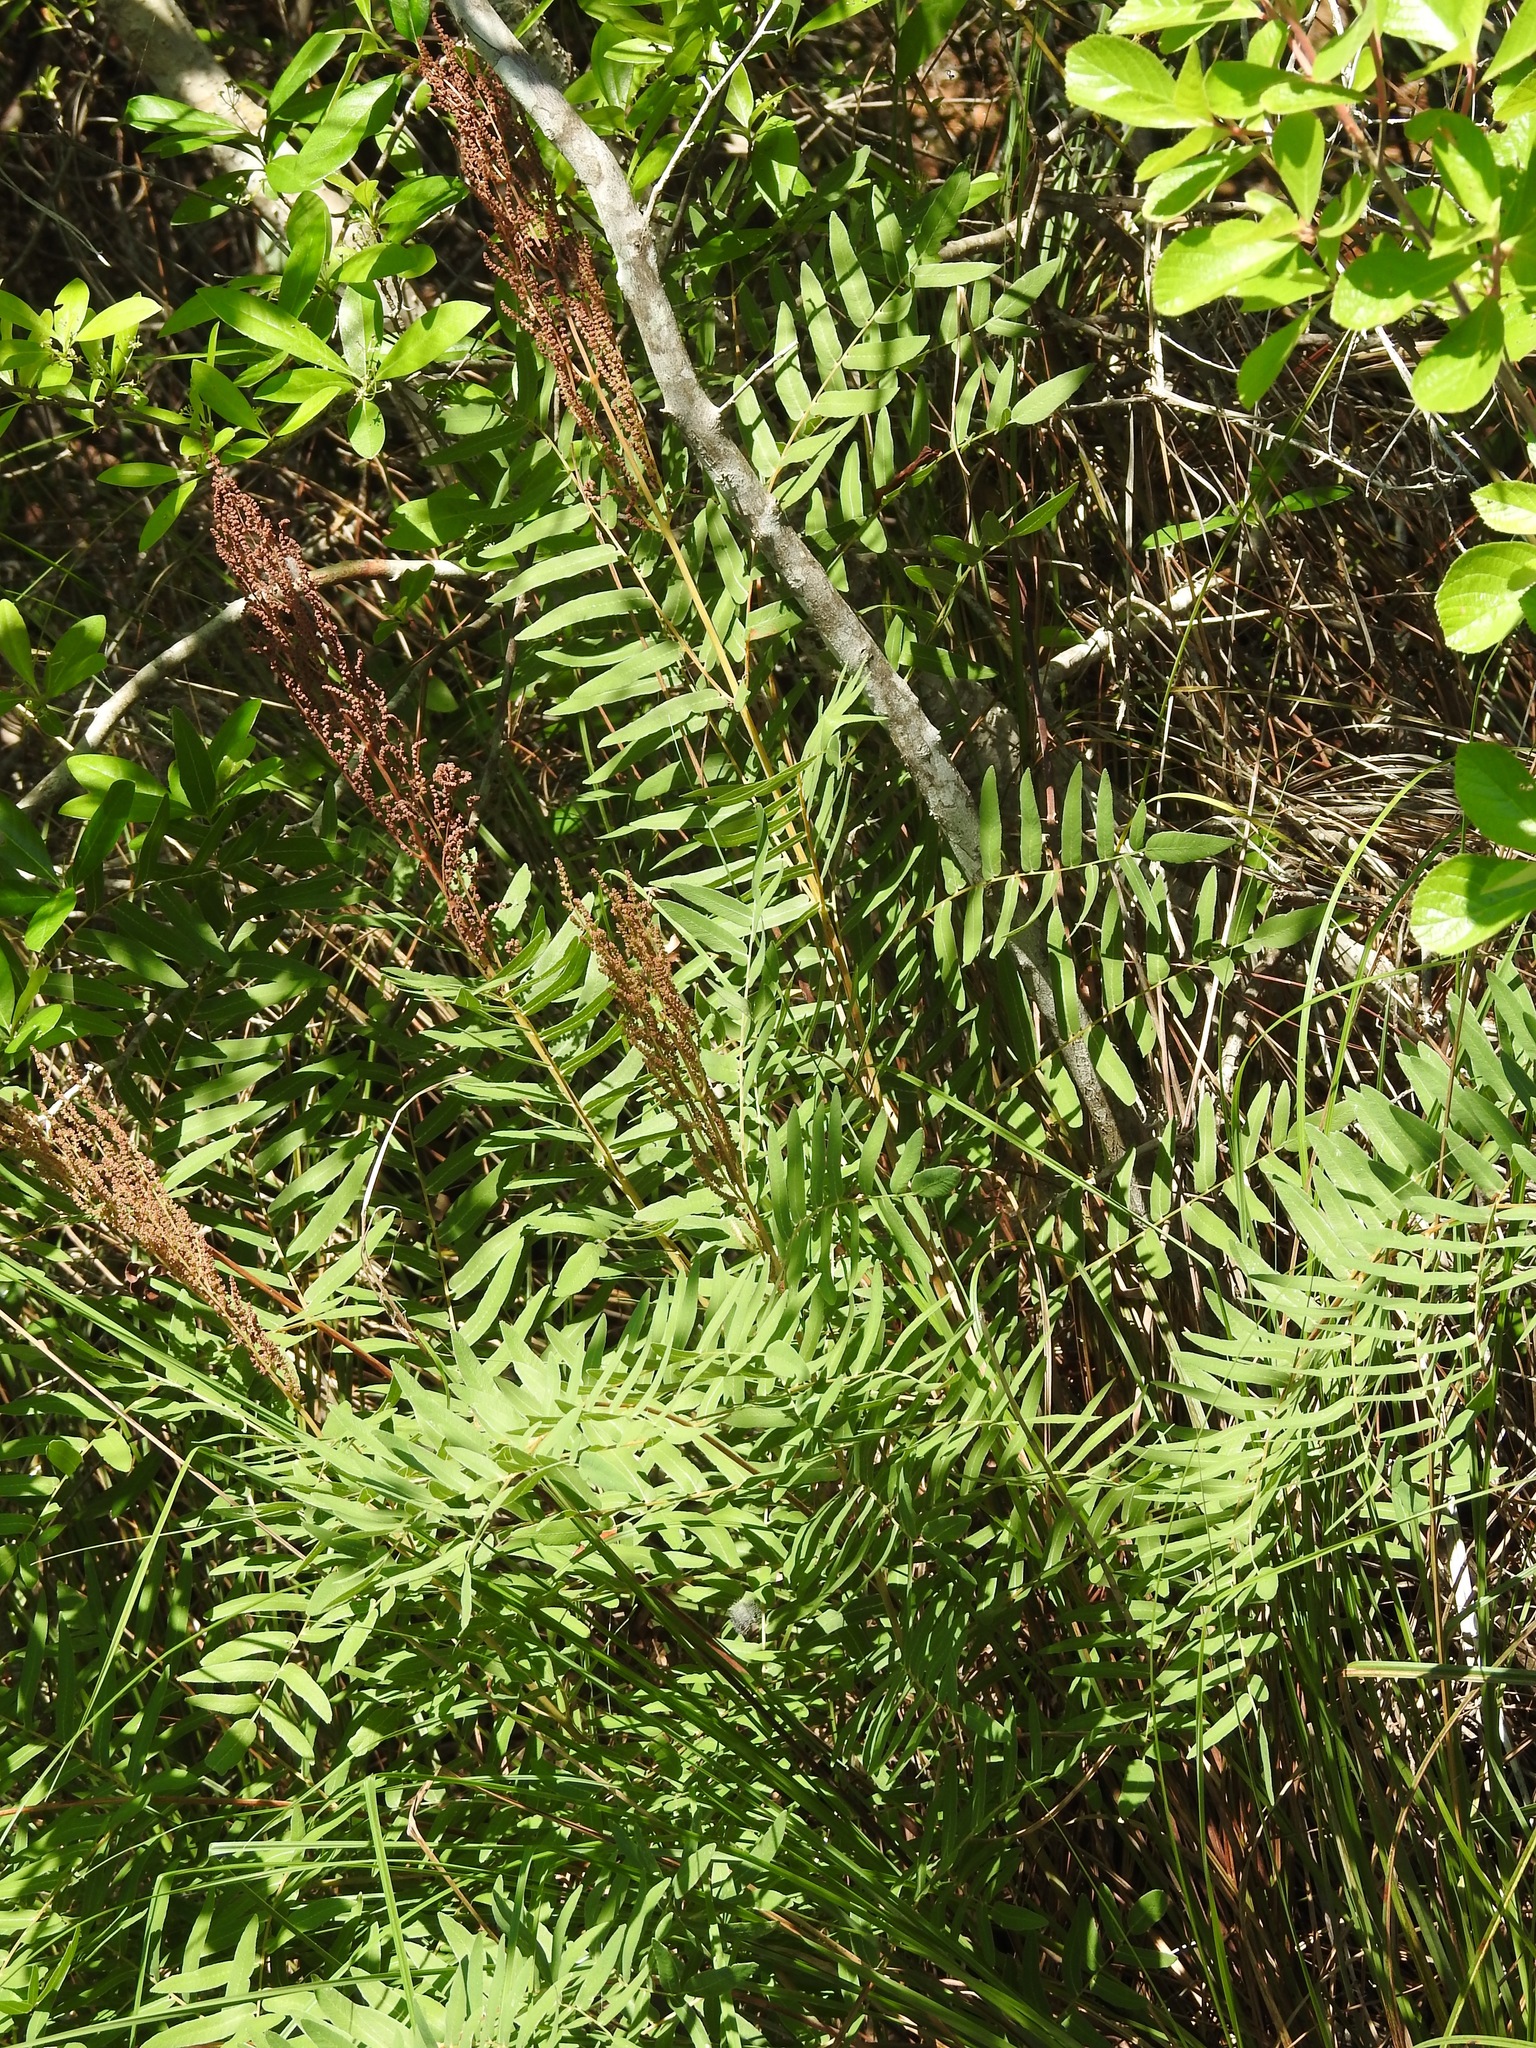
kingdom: Plantae
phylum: Tracheophyta
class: Polypodiopsida
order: Osmundales
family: Osmundaceae
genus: Osmunda
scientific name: Osmunda spectabilis
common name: American royal fern
